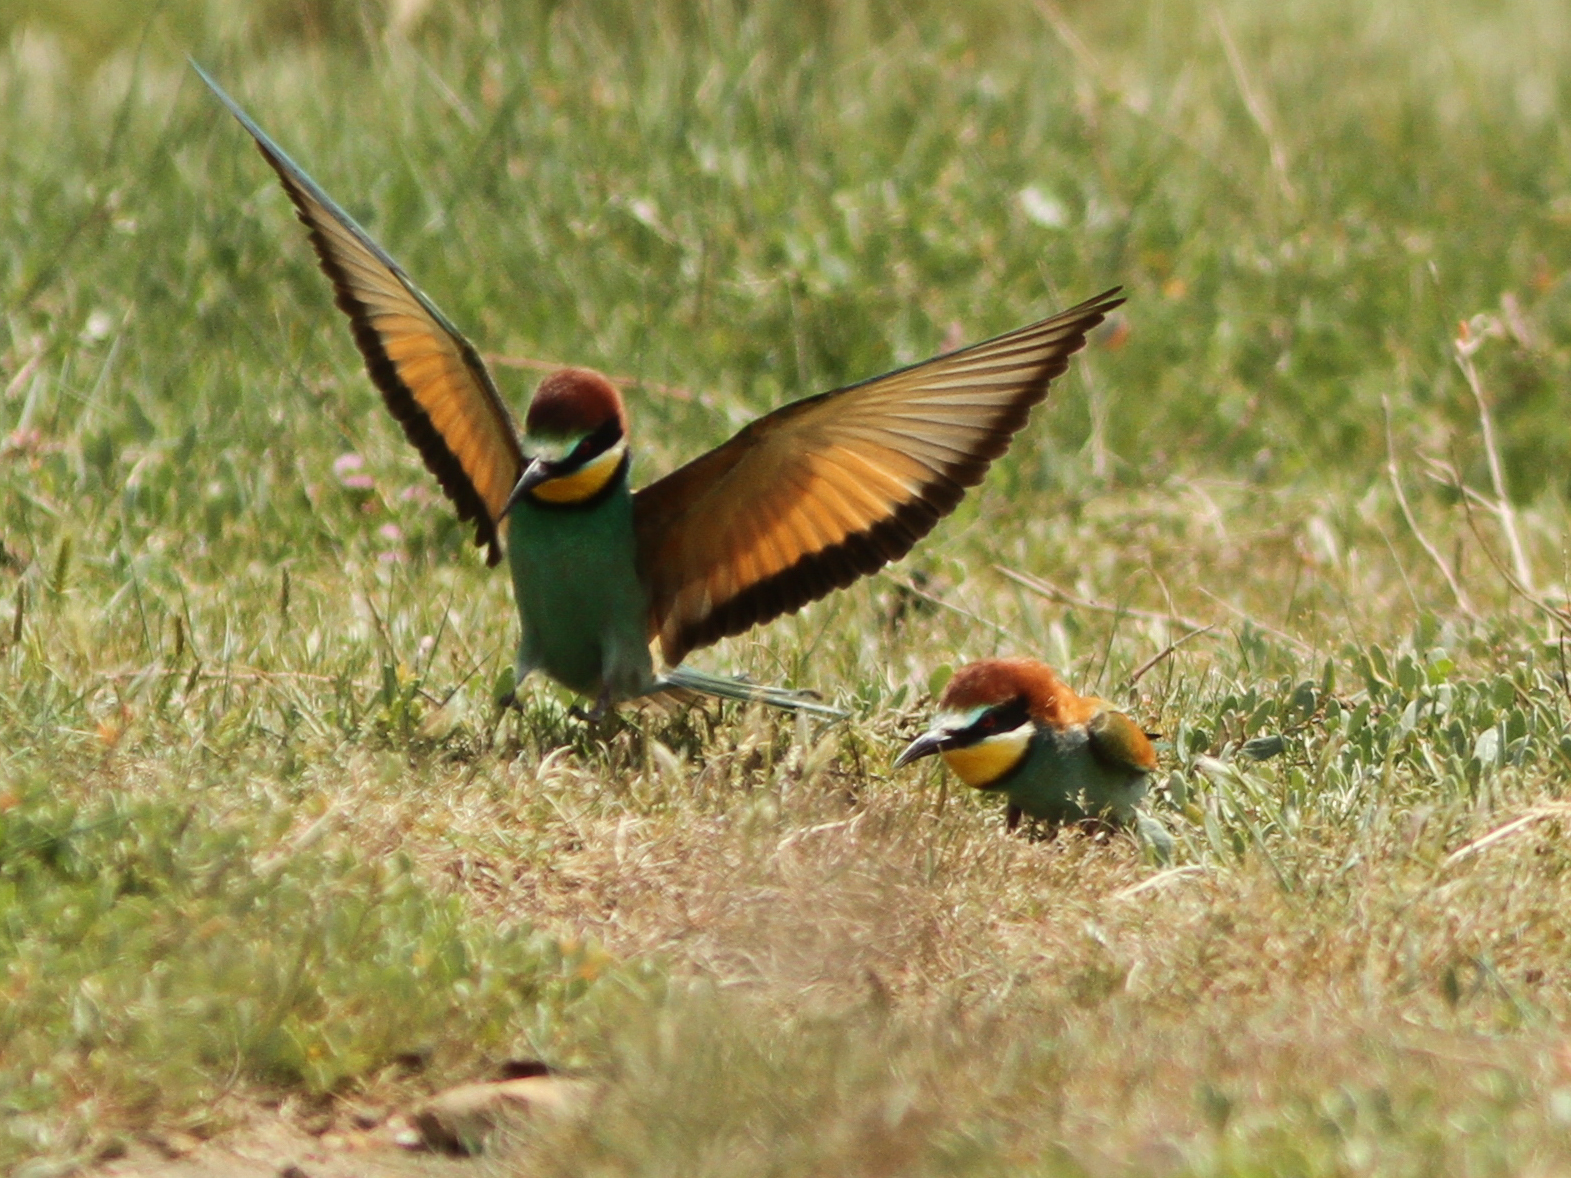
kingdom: Animalia
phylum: Chordata
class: Aves
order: Coraciiformes
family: Meropidae
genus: Merops
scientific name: Merops apiaster
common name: European bee-eater
